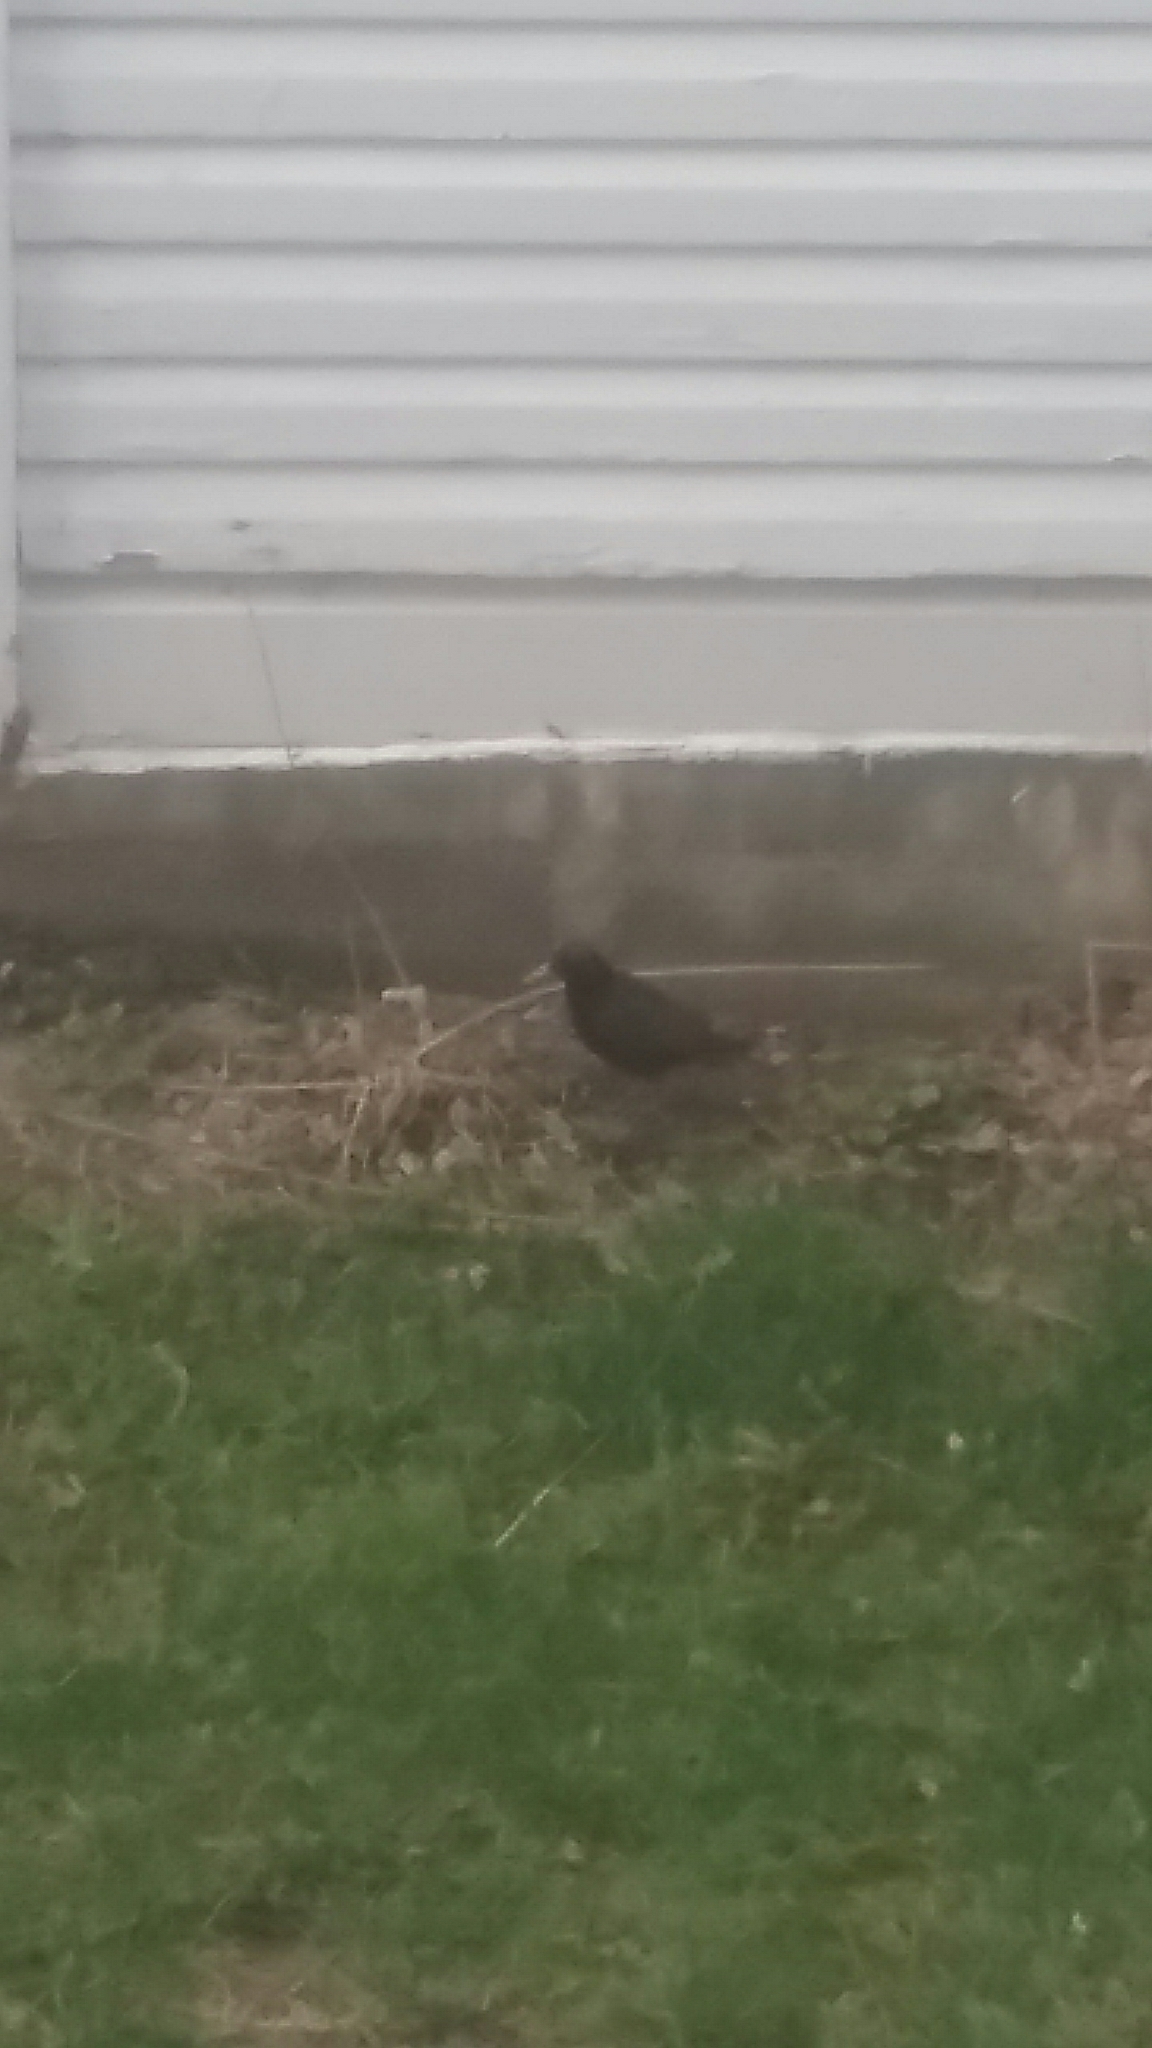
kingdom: Animalia
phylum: Chordata
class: Aves
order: Passeriformes
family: Sturnidae
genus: Sturnus
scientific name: Sturnus vulgaris
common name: Common starling
